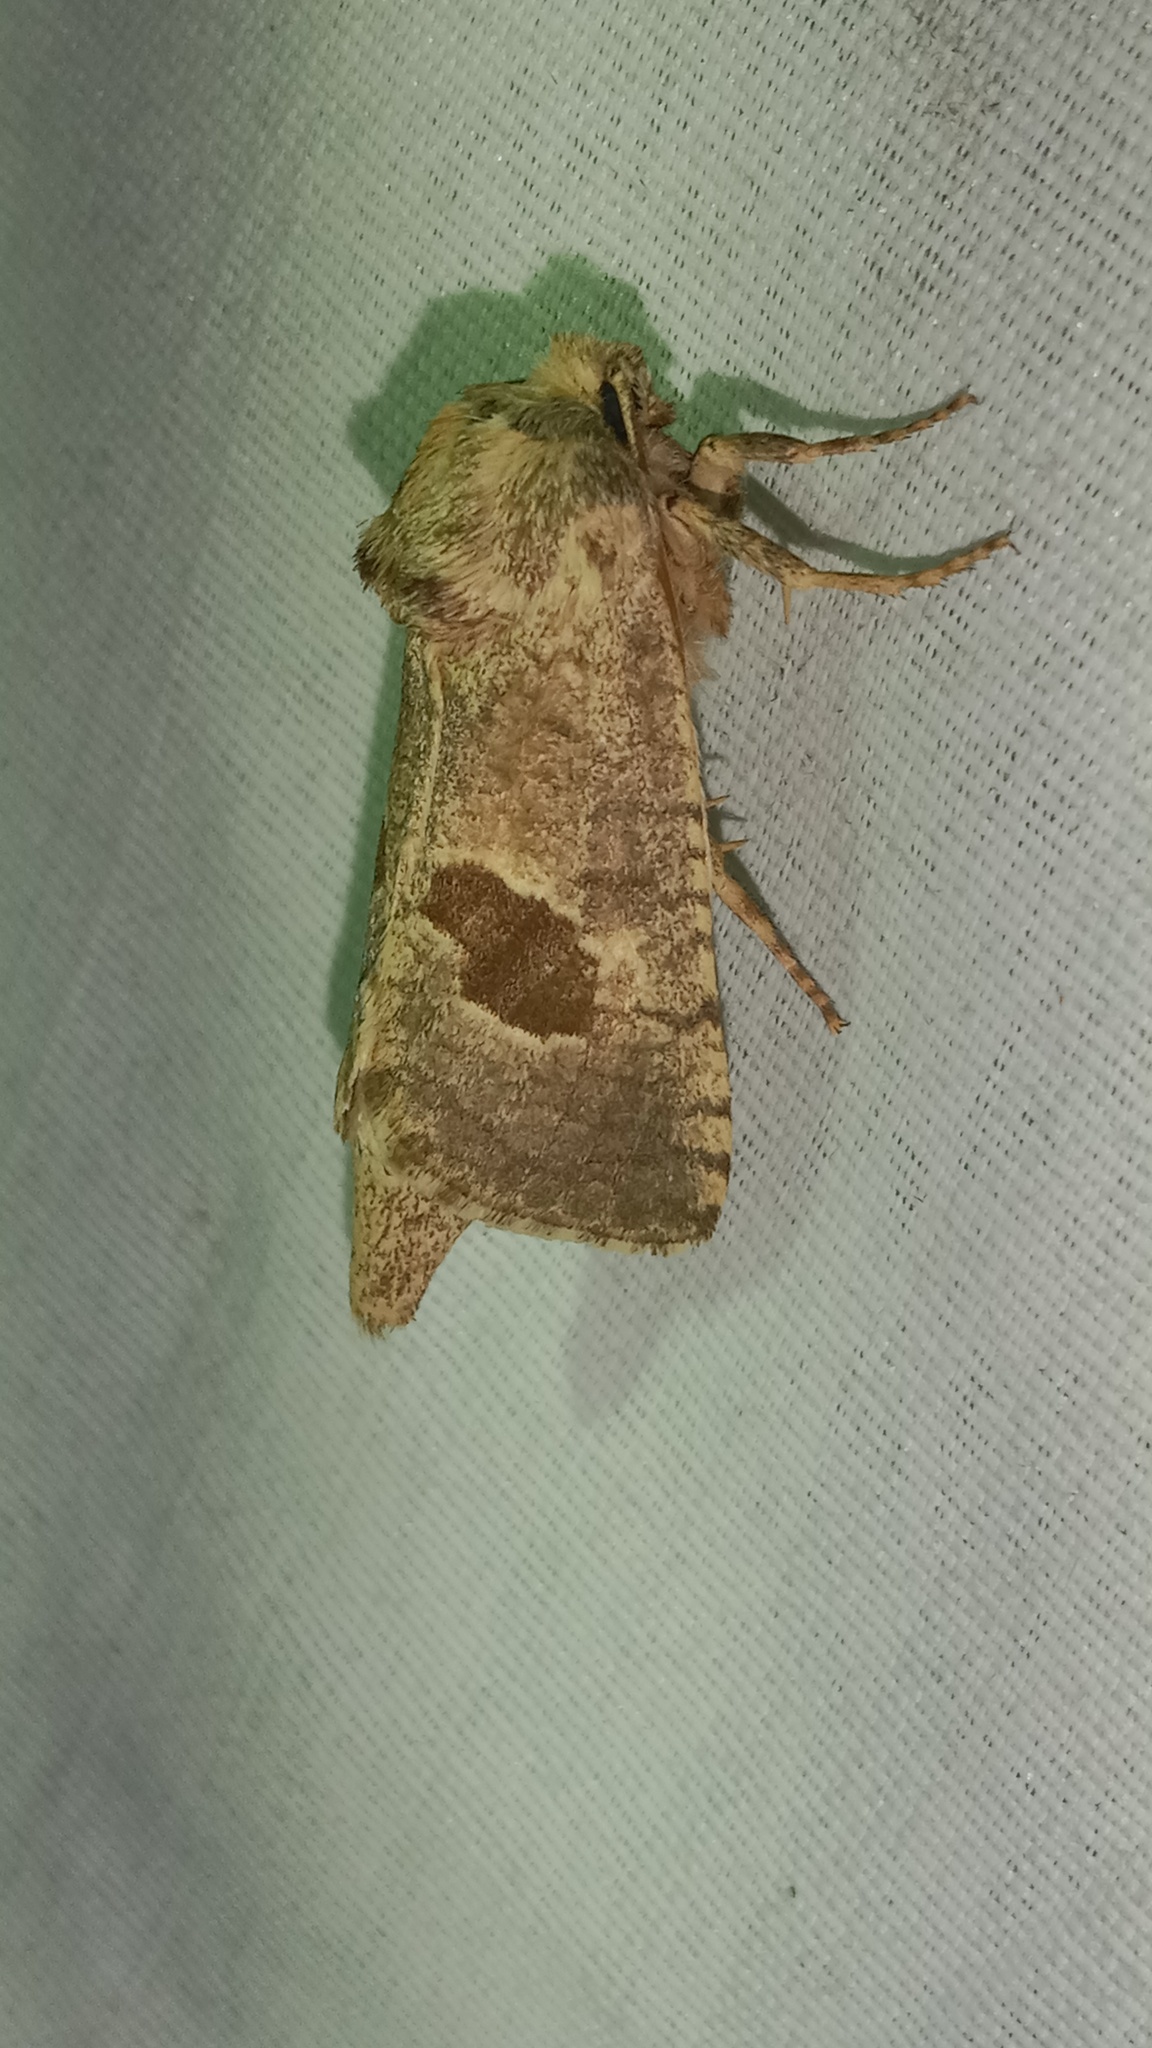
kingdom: Animalia
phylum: Arthropoda
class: Insecta
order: Lepidoptera
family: Cossidae
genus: Paracossulus
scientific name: Paracossulus thrips
